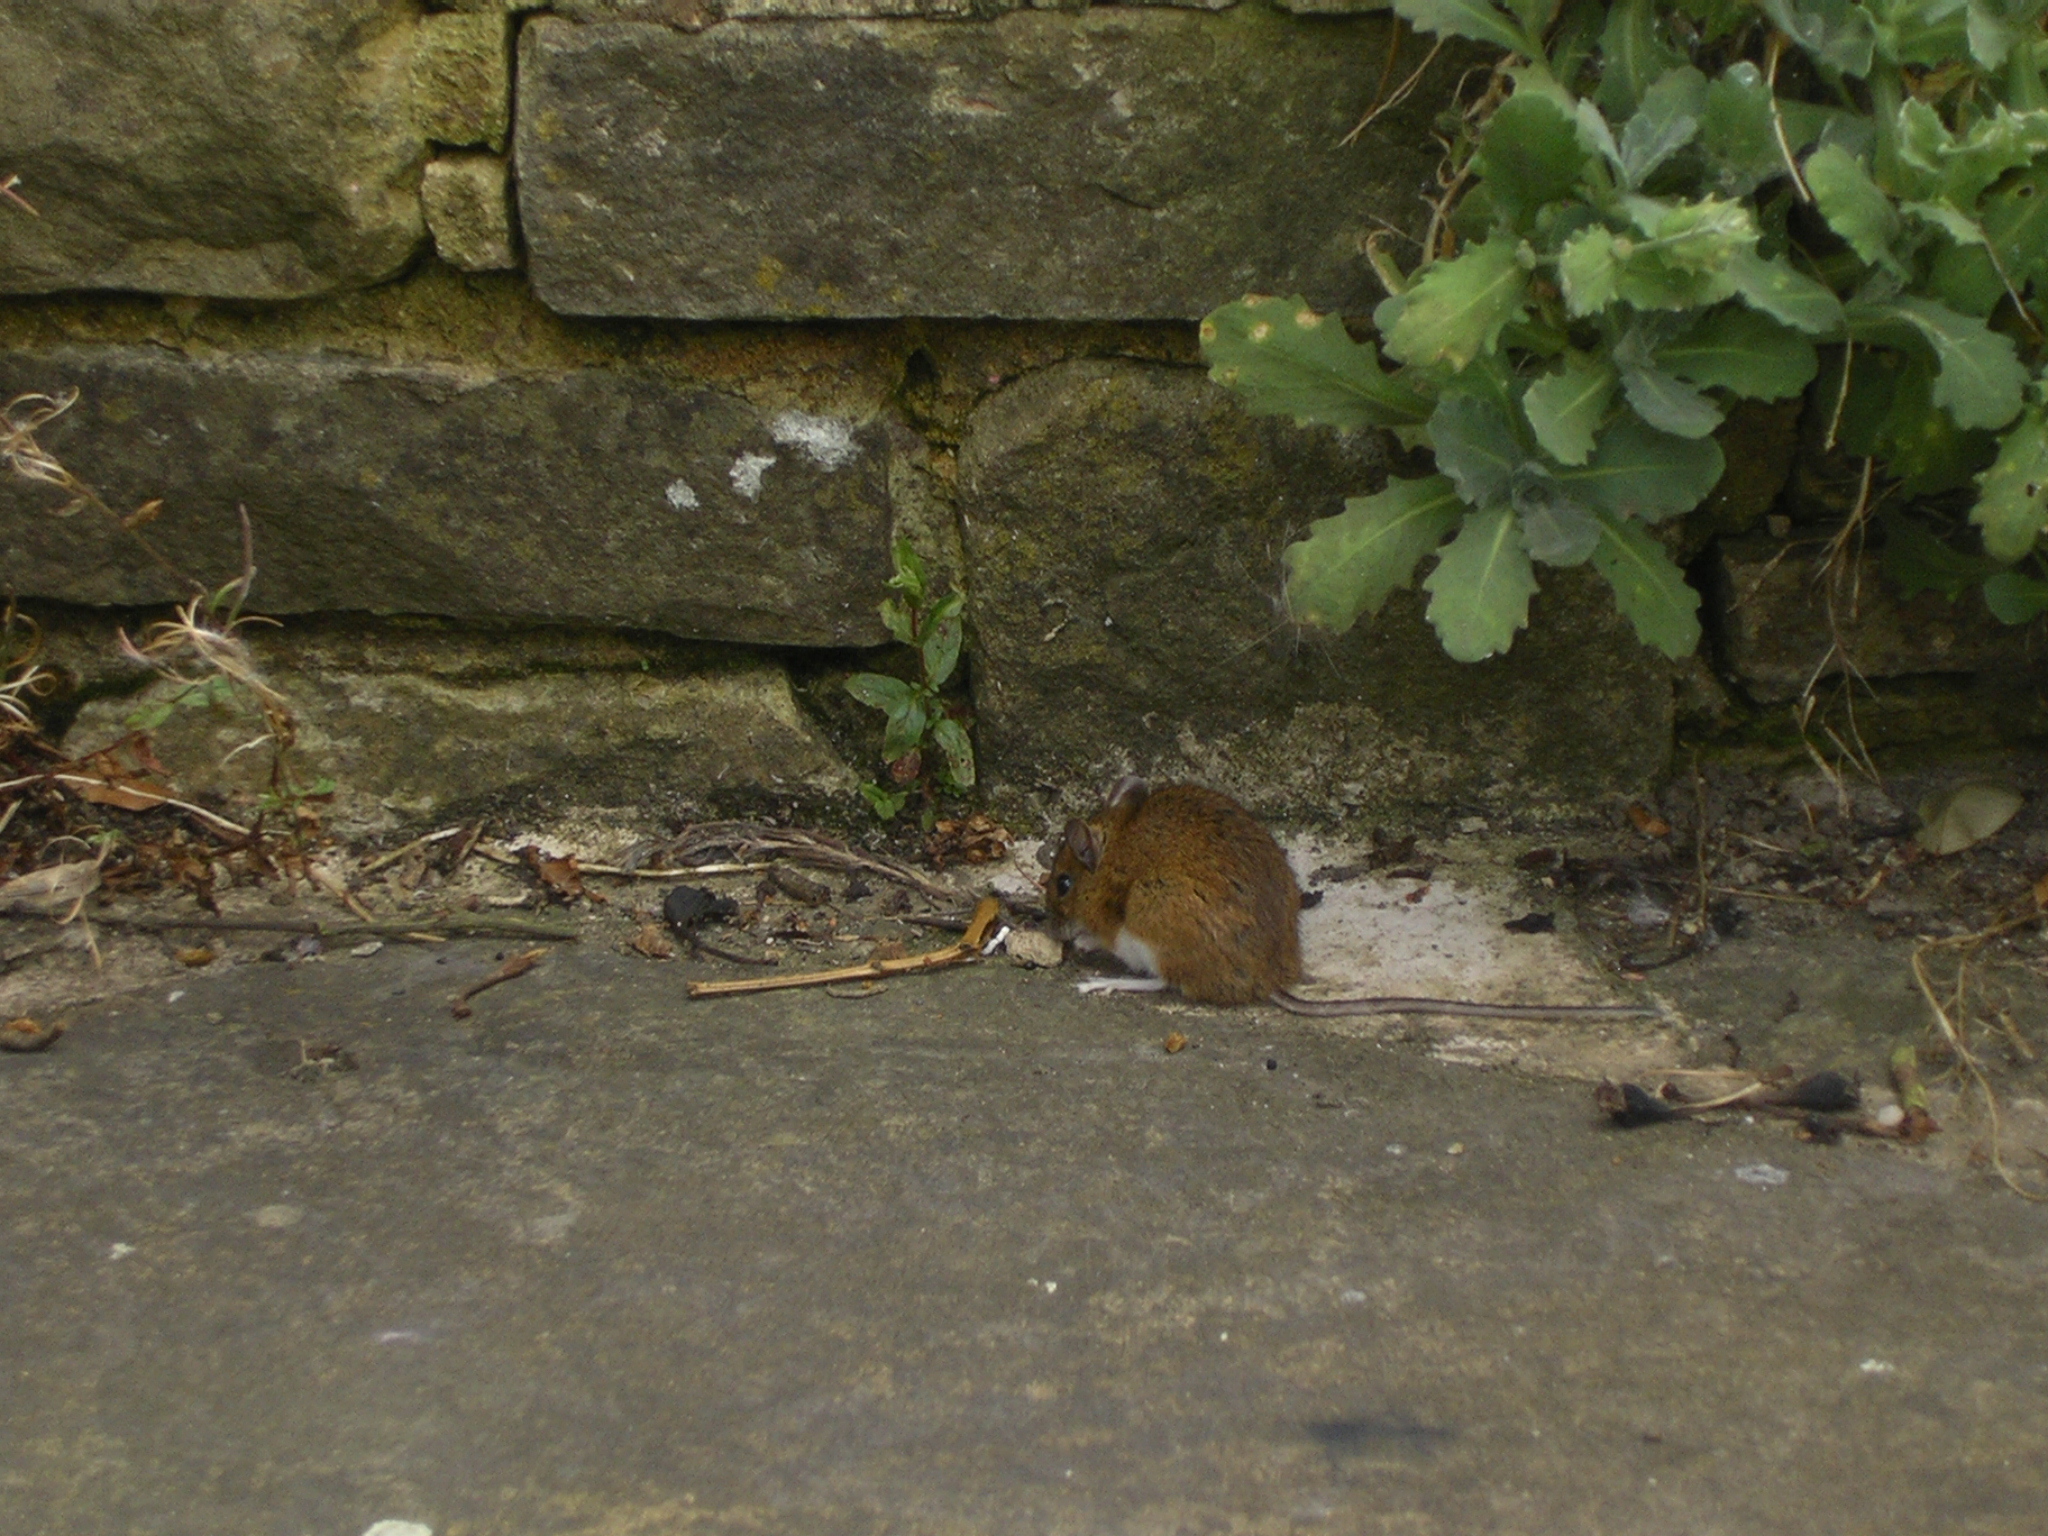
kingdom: Animalia
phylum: Chordata
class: Mammalia
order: Rodentia
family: Muridae
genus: Apodemus
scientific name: Apodemus sylvaticus
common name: Wood mouse
